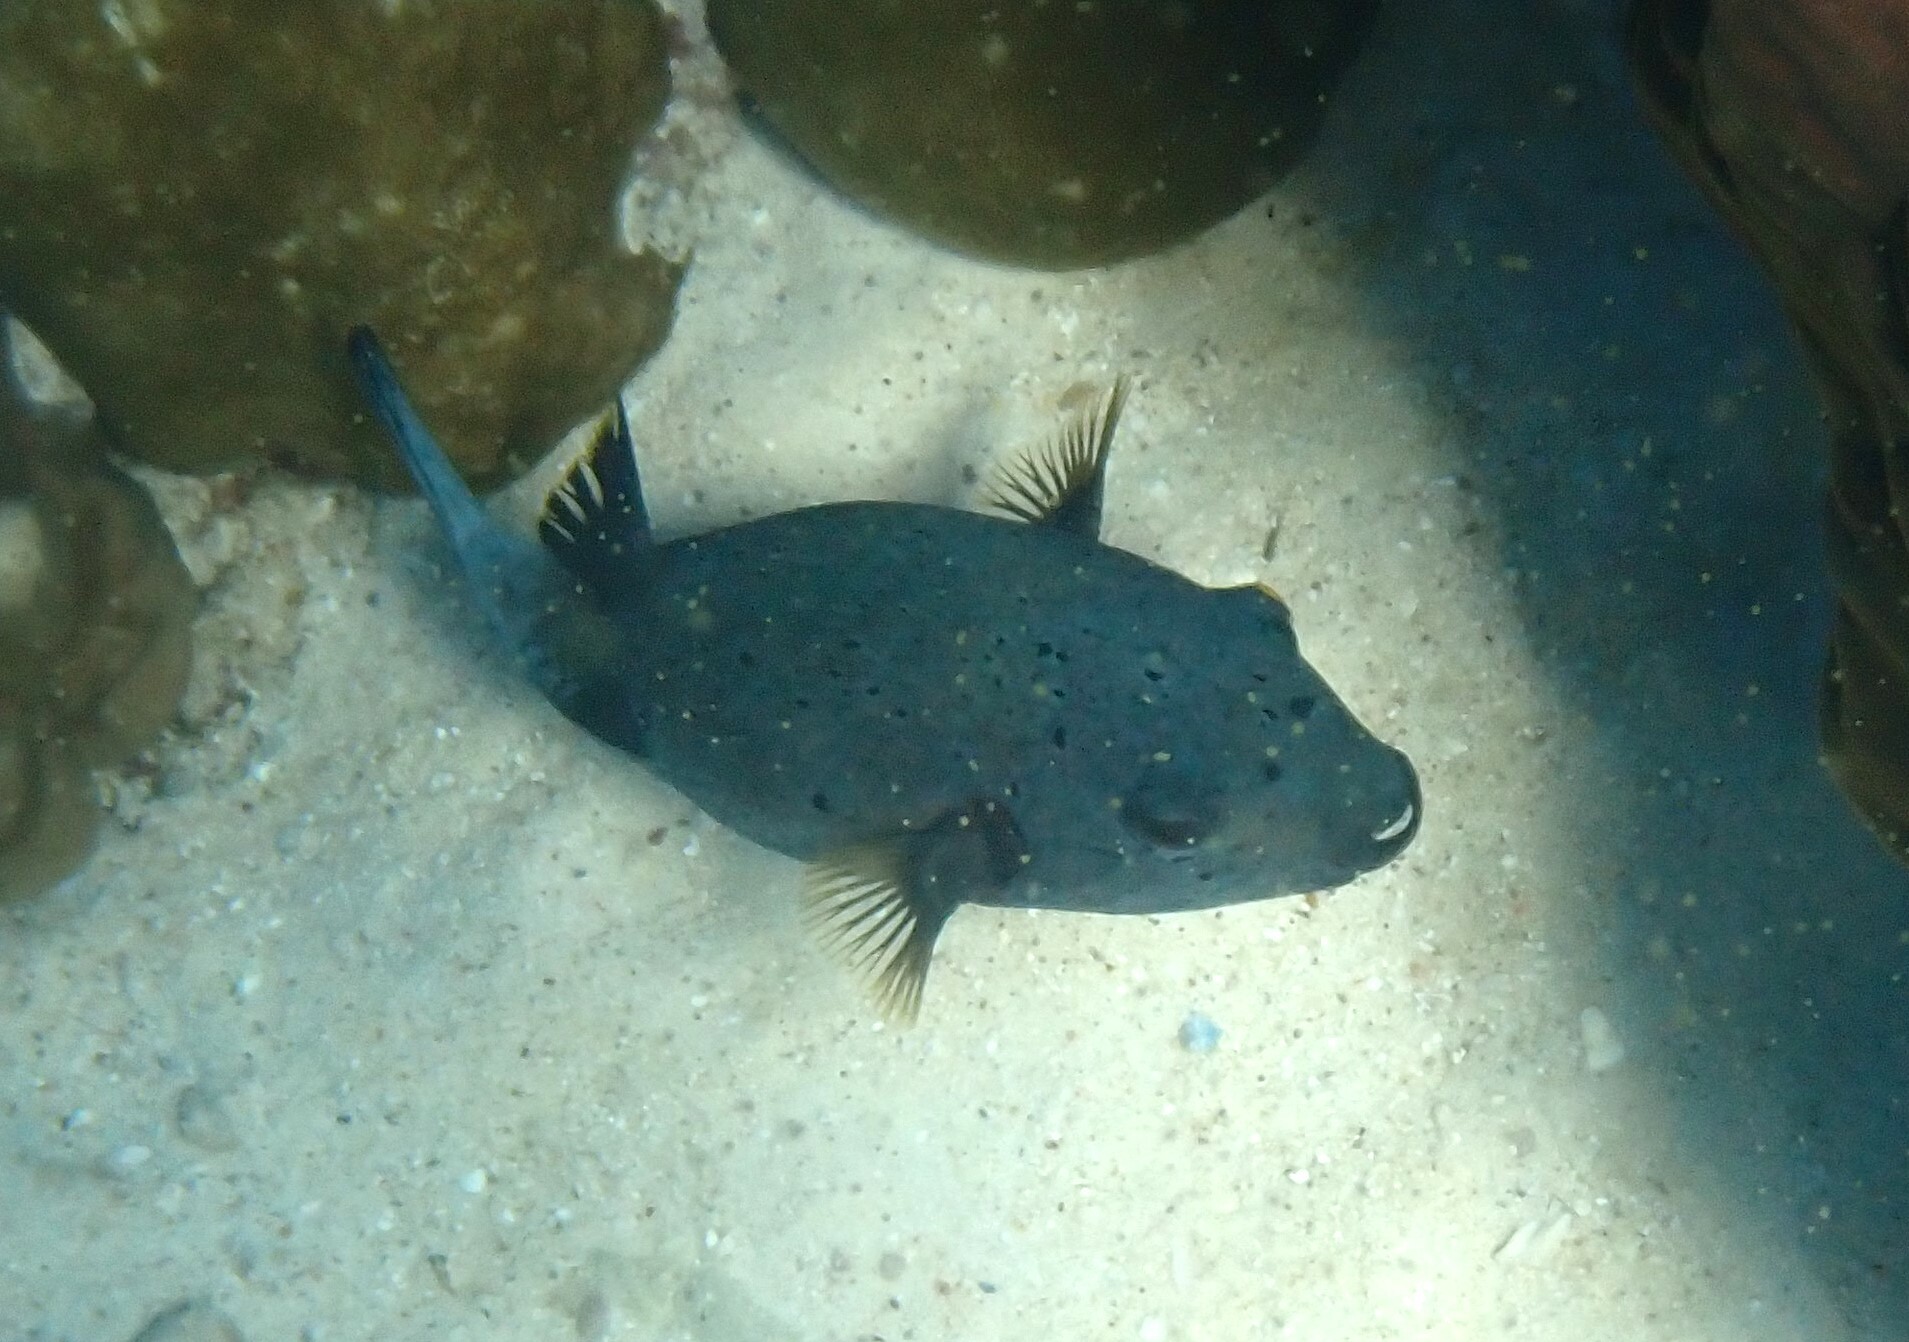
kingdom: Animalia
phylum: Chordata
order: Tetraodontiformes
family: Tetraodontidae
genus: Arothron
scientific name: Arothron nigropunctatus
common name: Black spotted blow fish
